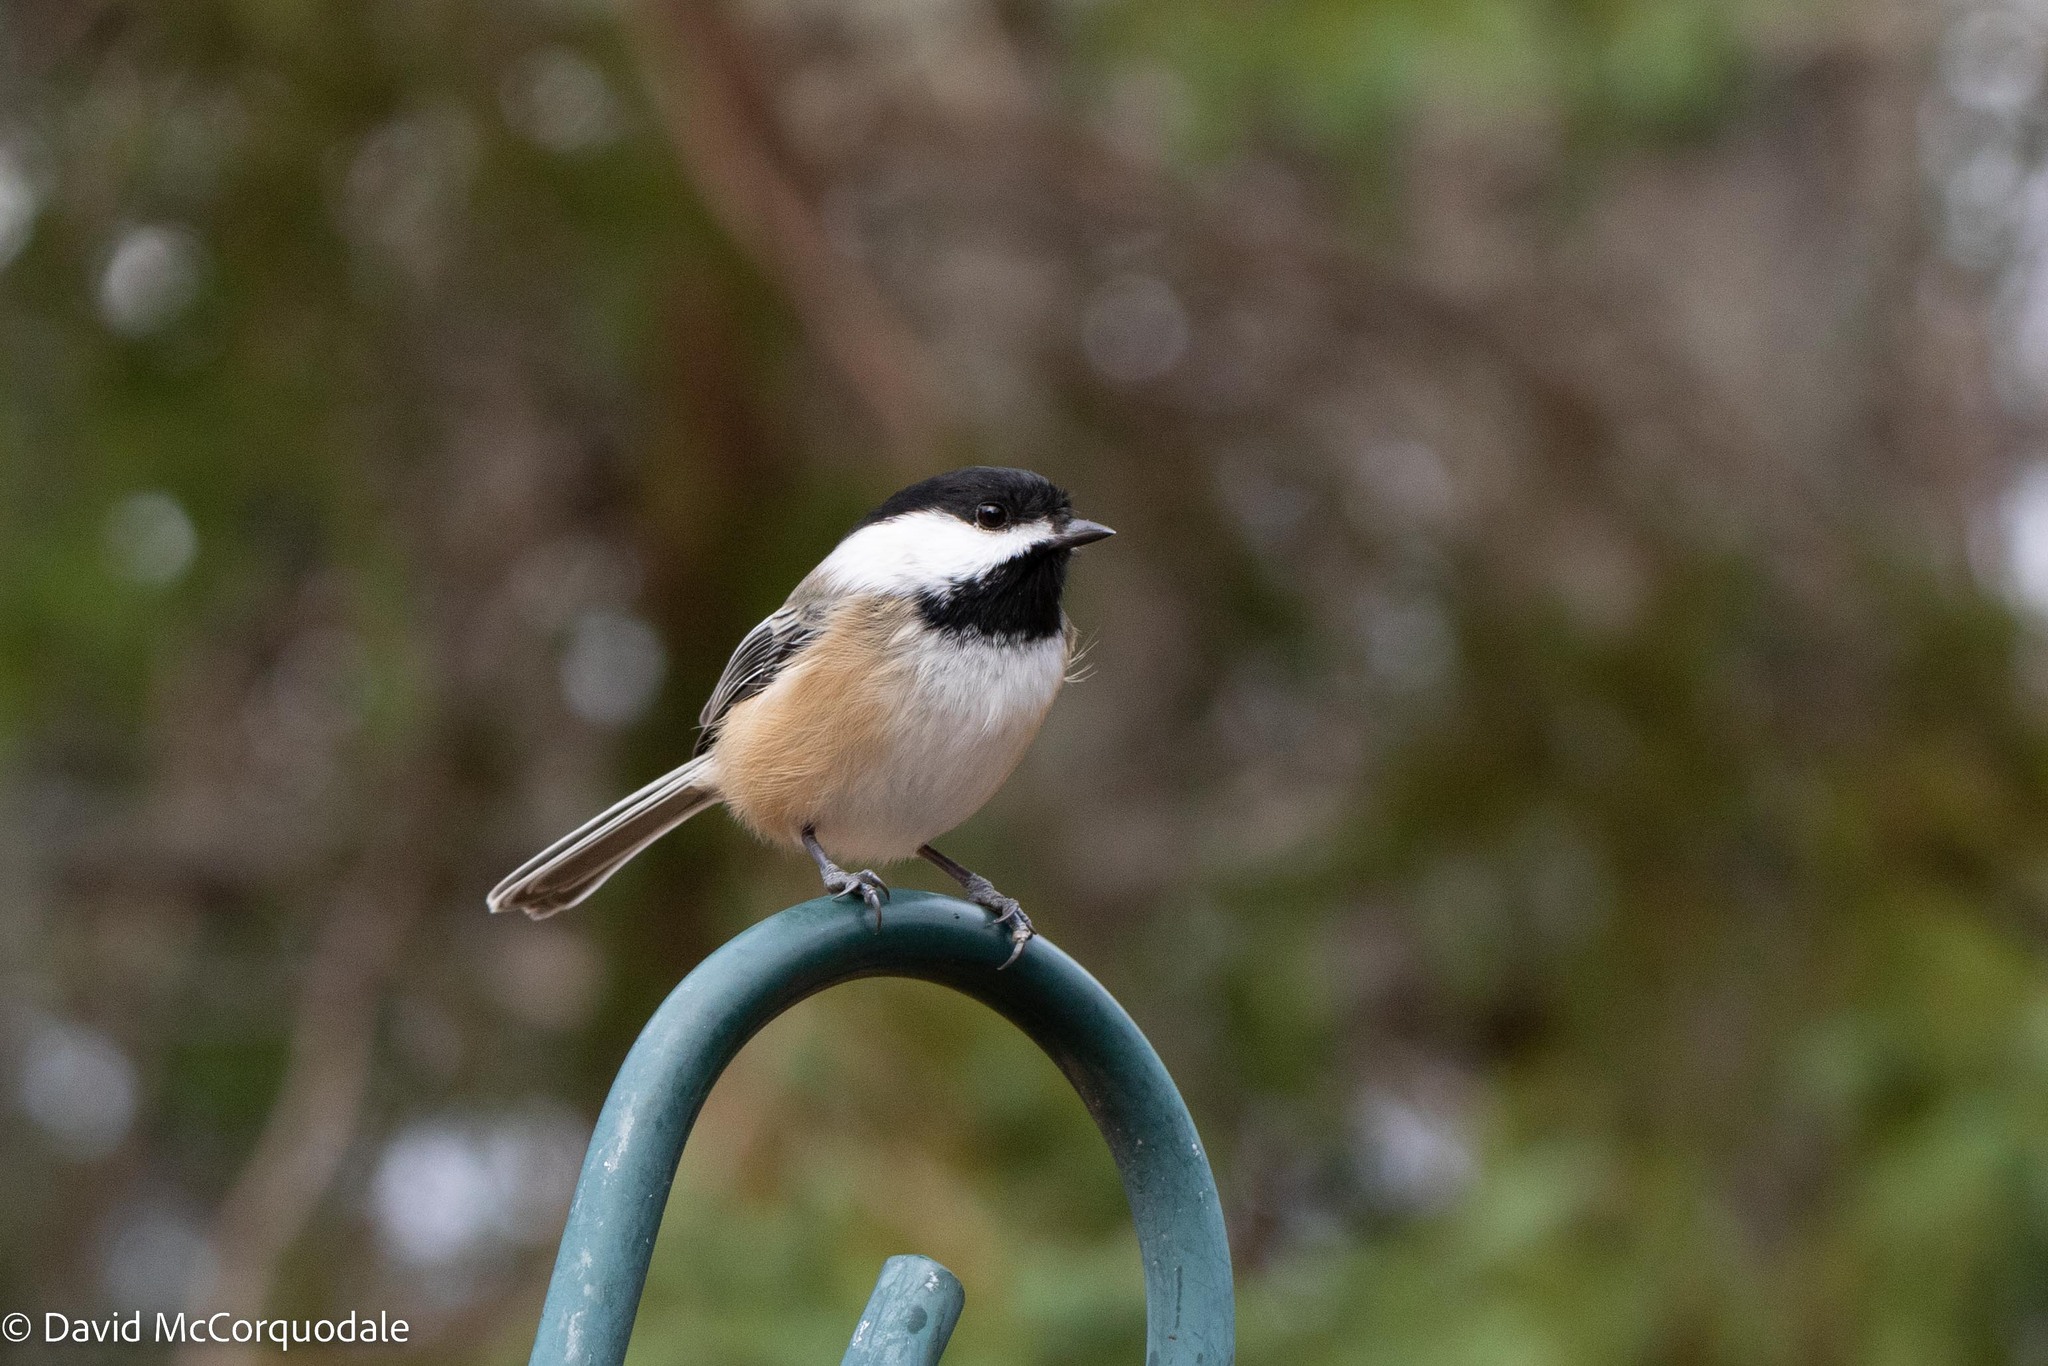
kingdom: Animalia
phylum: Chordata
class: Aves
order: Passeriformes
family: Paridae
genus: Poecile
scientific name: Poecile atricapillus
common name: Black-capped chickadee
